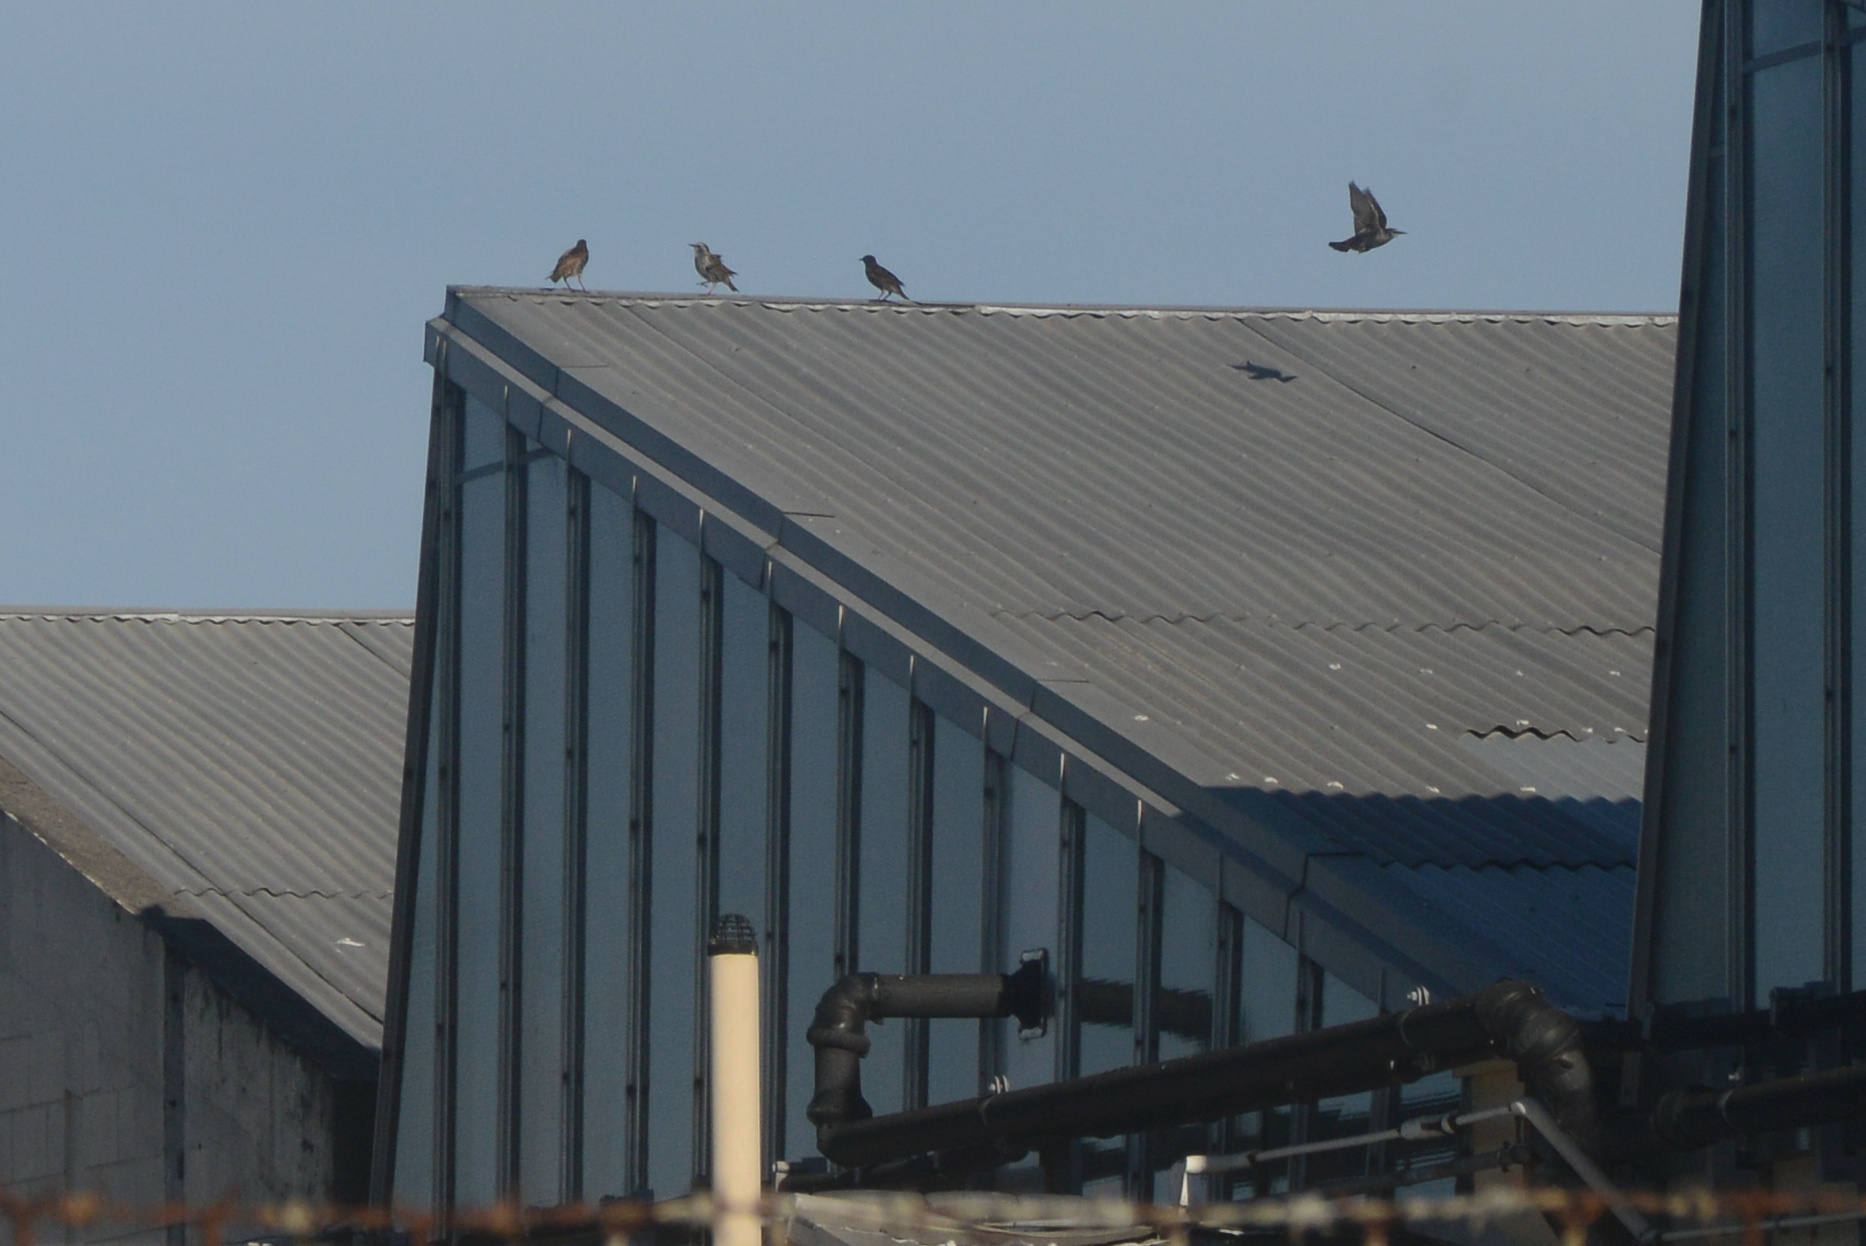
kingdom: Animalia
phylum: Chordata
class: Aves
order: Passeriformes
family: Sturnidae
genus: Sturnus
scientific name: Sturnus vulgaris
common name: Common starling
